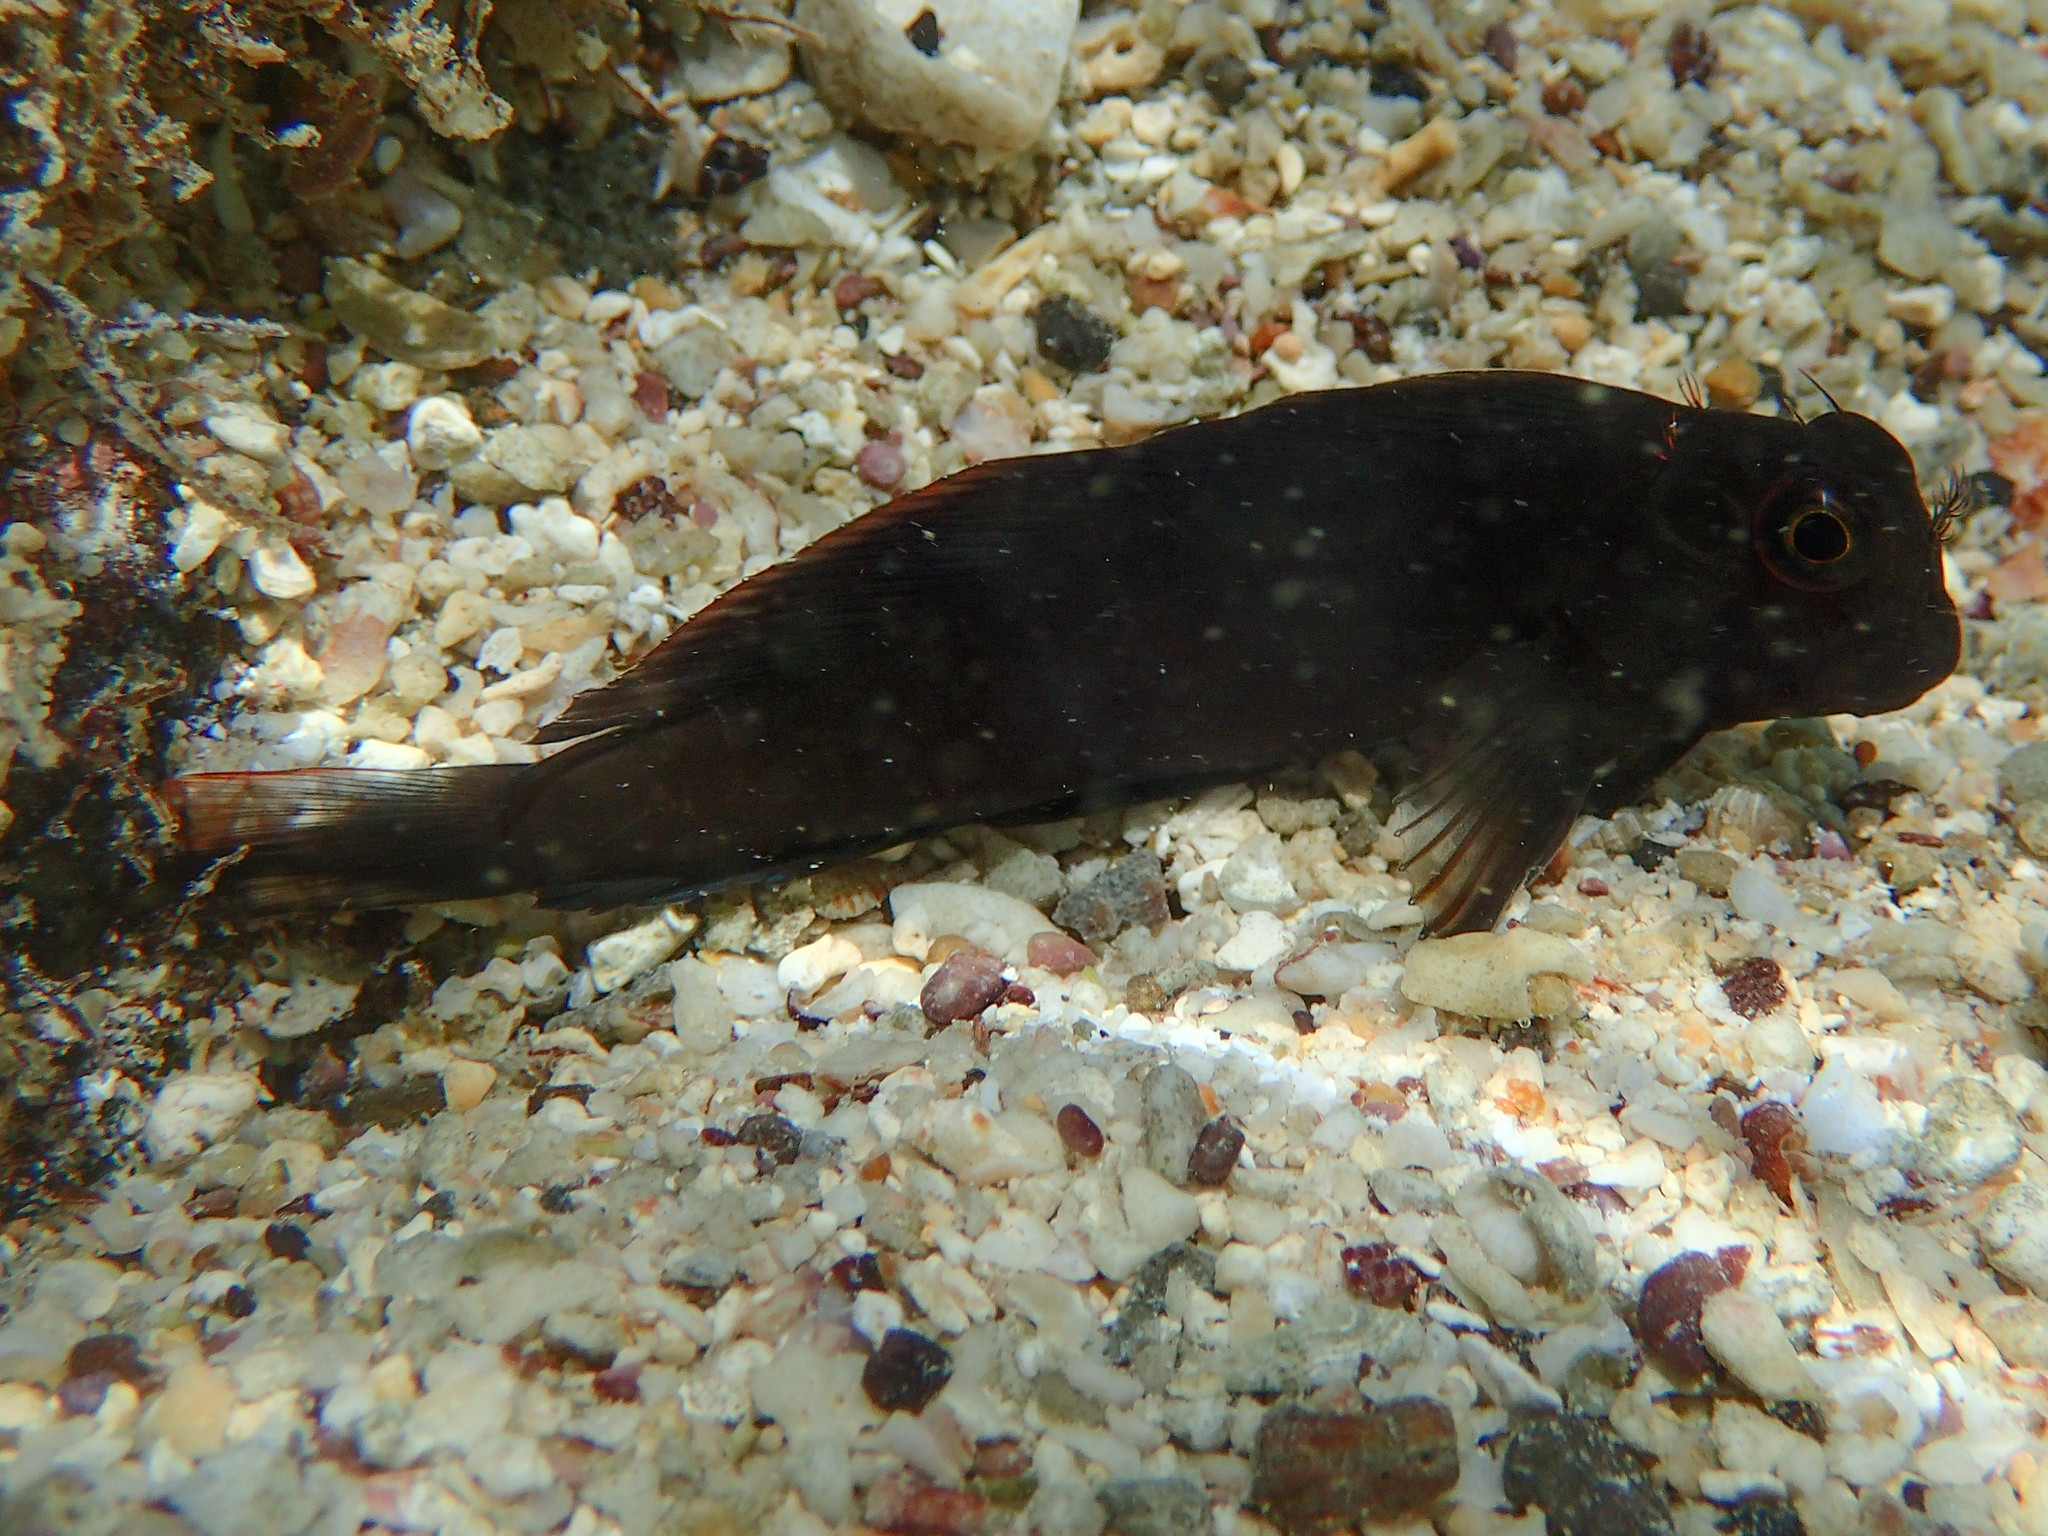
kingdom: Animalia
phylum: Chordata
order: Perciformes
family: Blenniidae
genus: Ophioblennius
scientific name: Ophioblennius steindachneri
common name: Panamic fanged blenny
